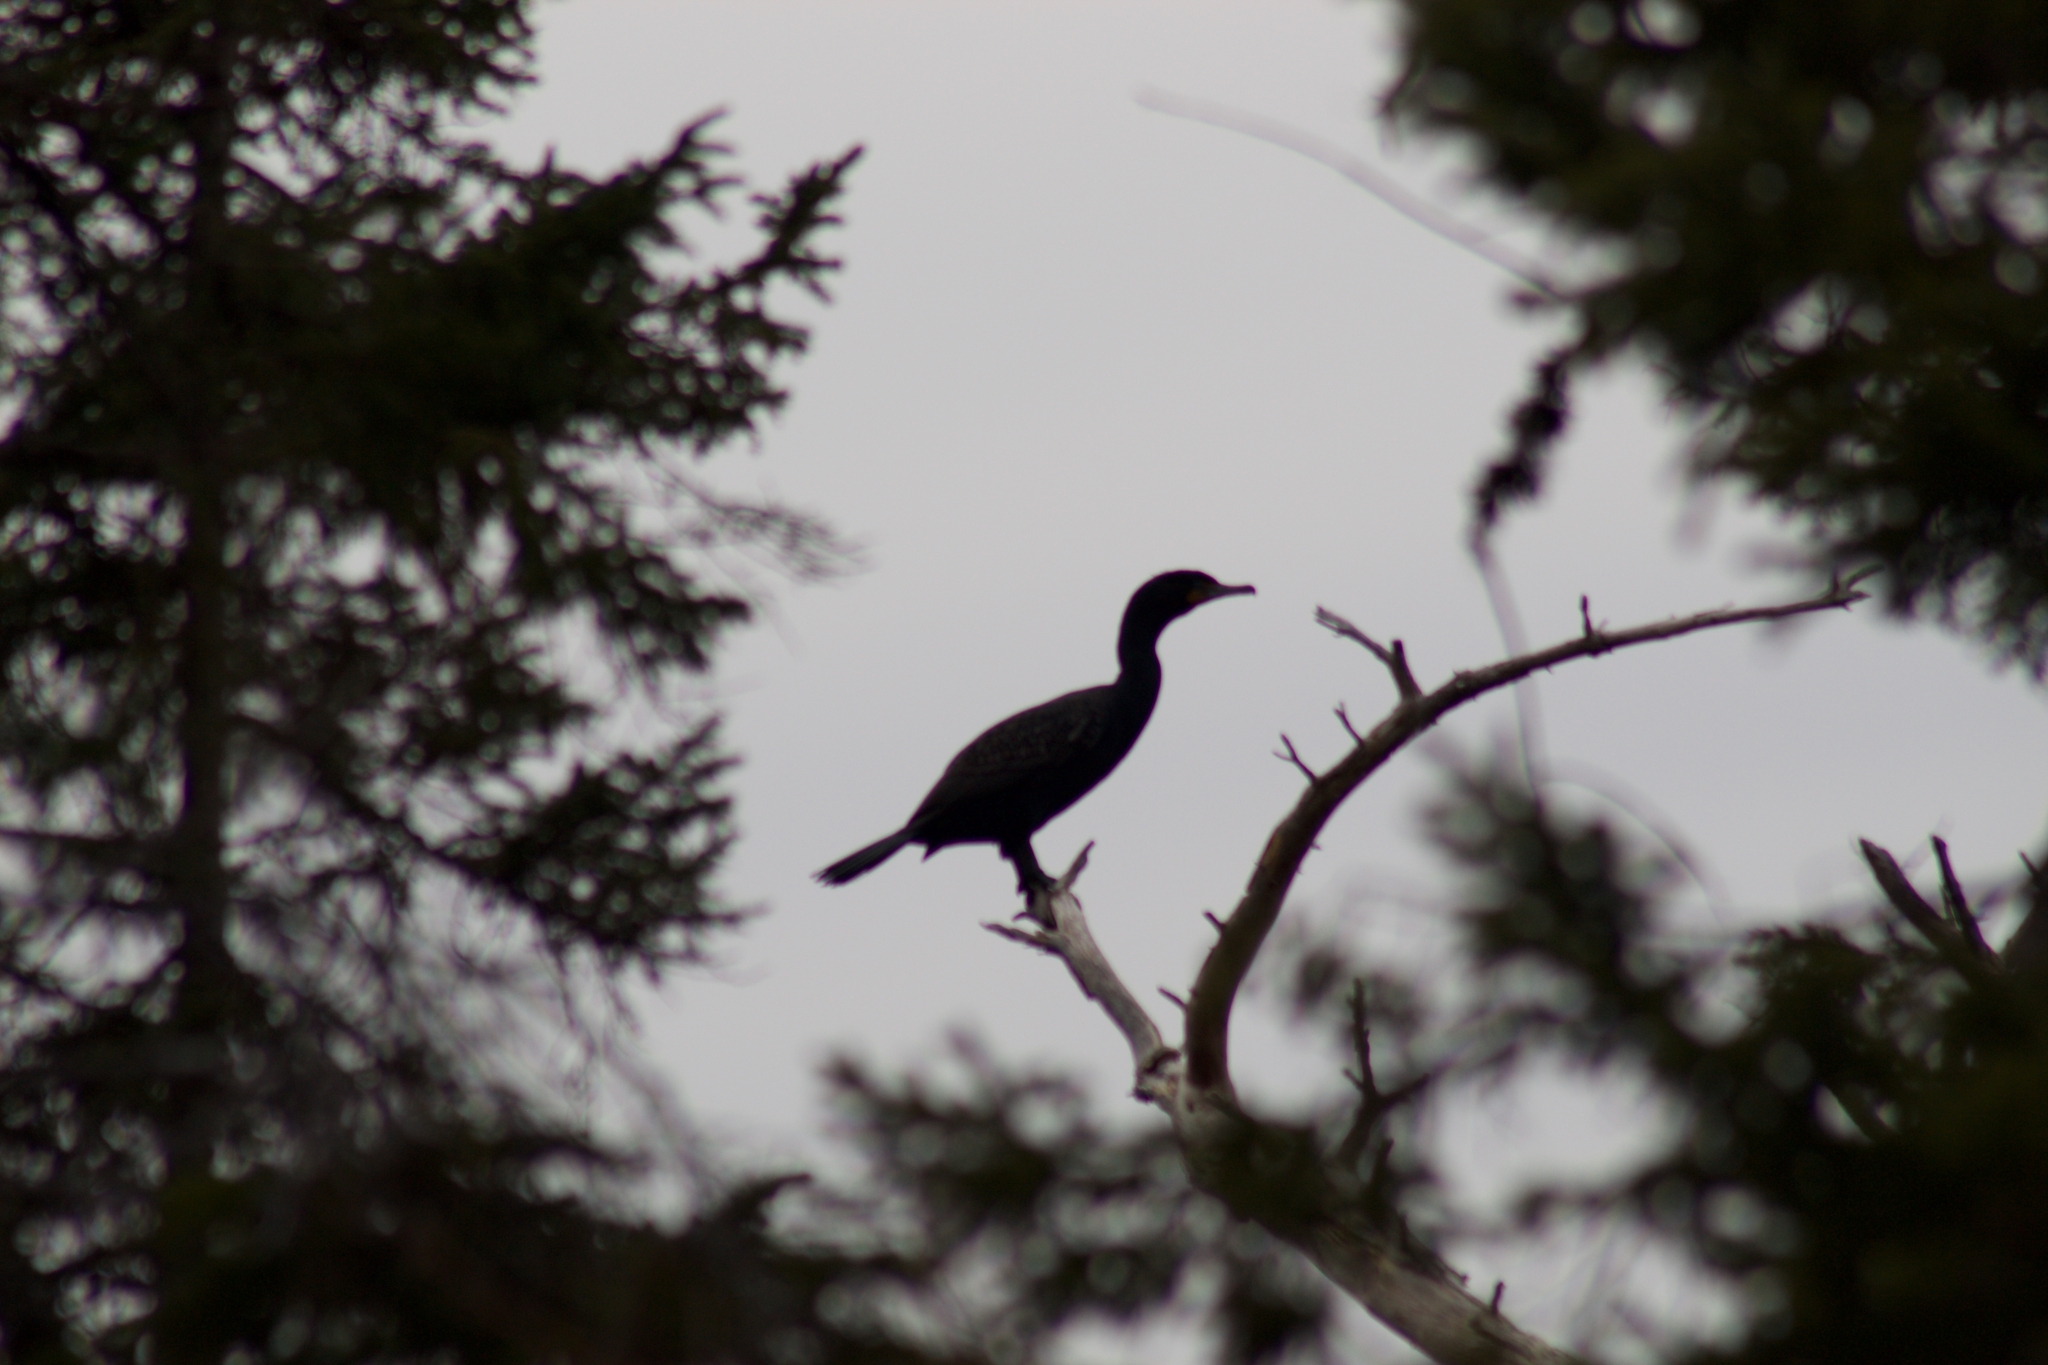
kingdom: Animalia
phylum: Chordata
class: Aves
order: Suliformes
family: Phalacrocoracidae
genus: Phalacrocorax
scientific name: Phalacrocorax auritus
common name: Double-crested cormorant
